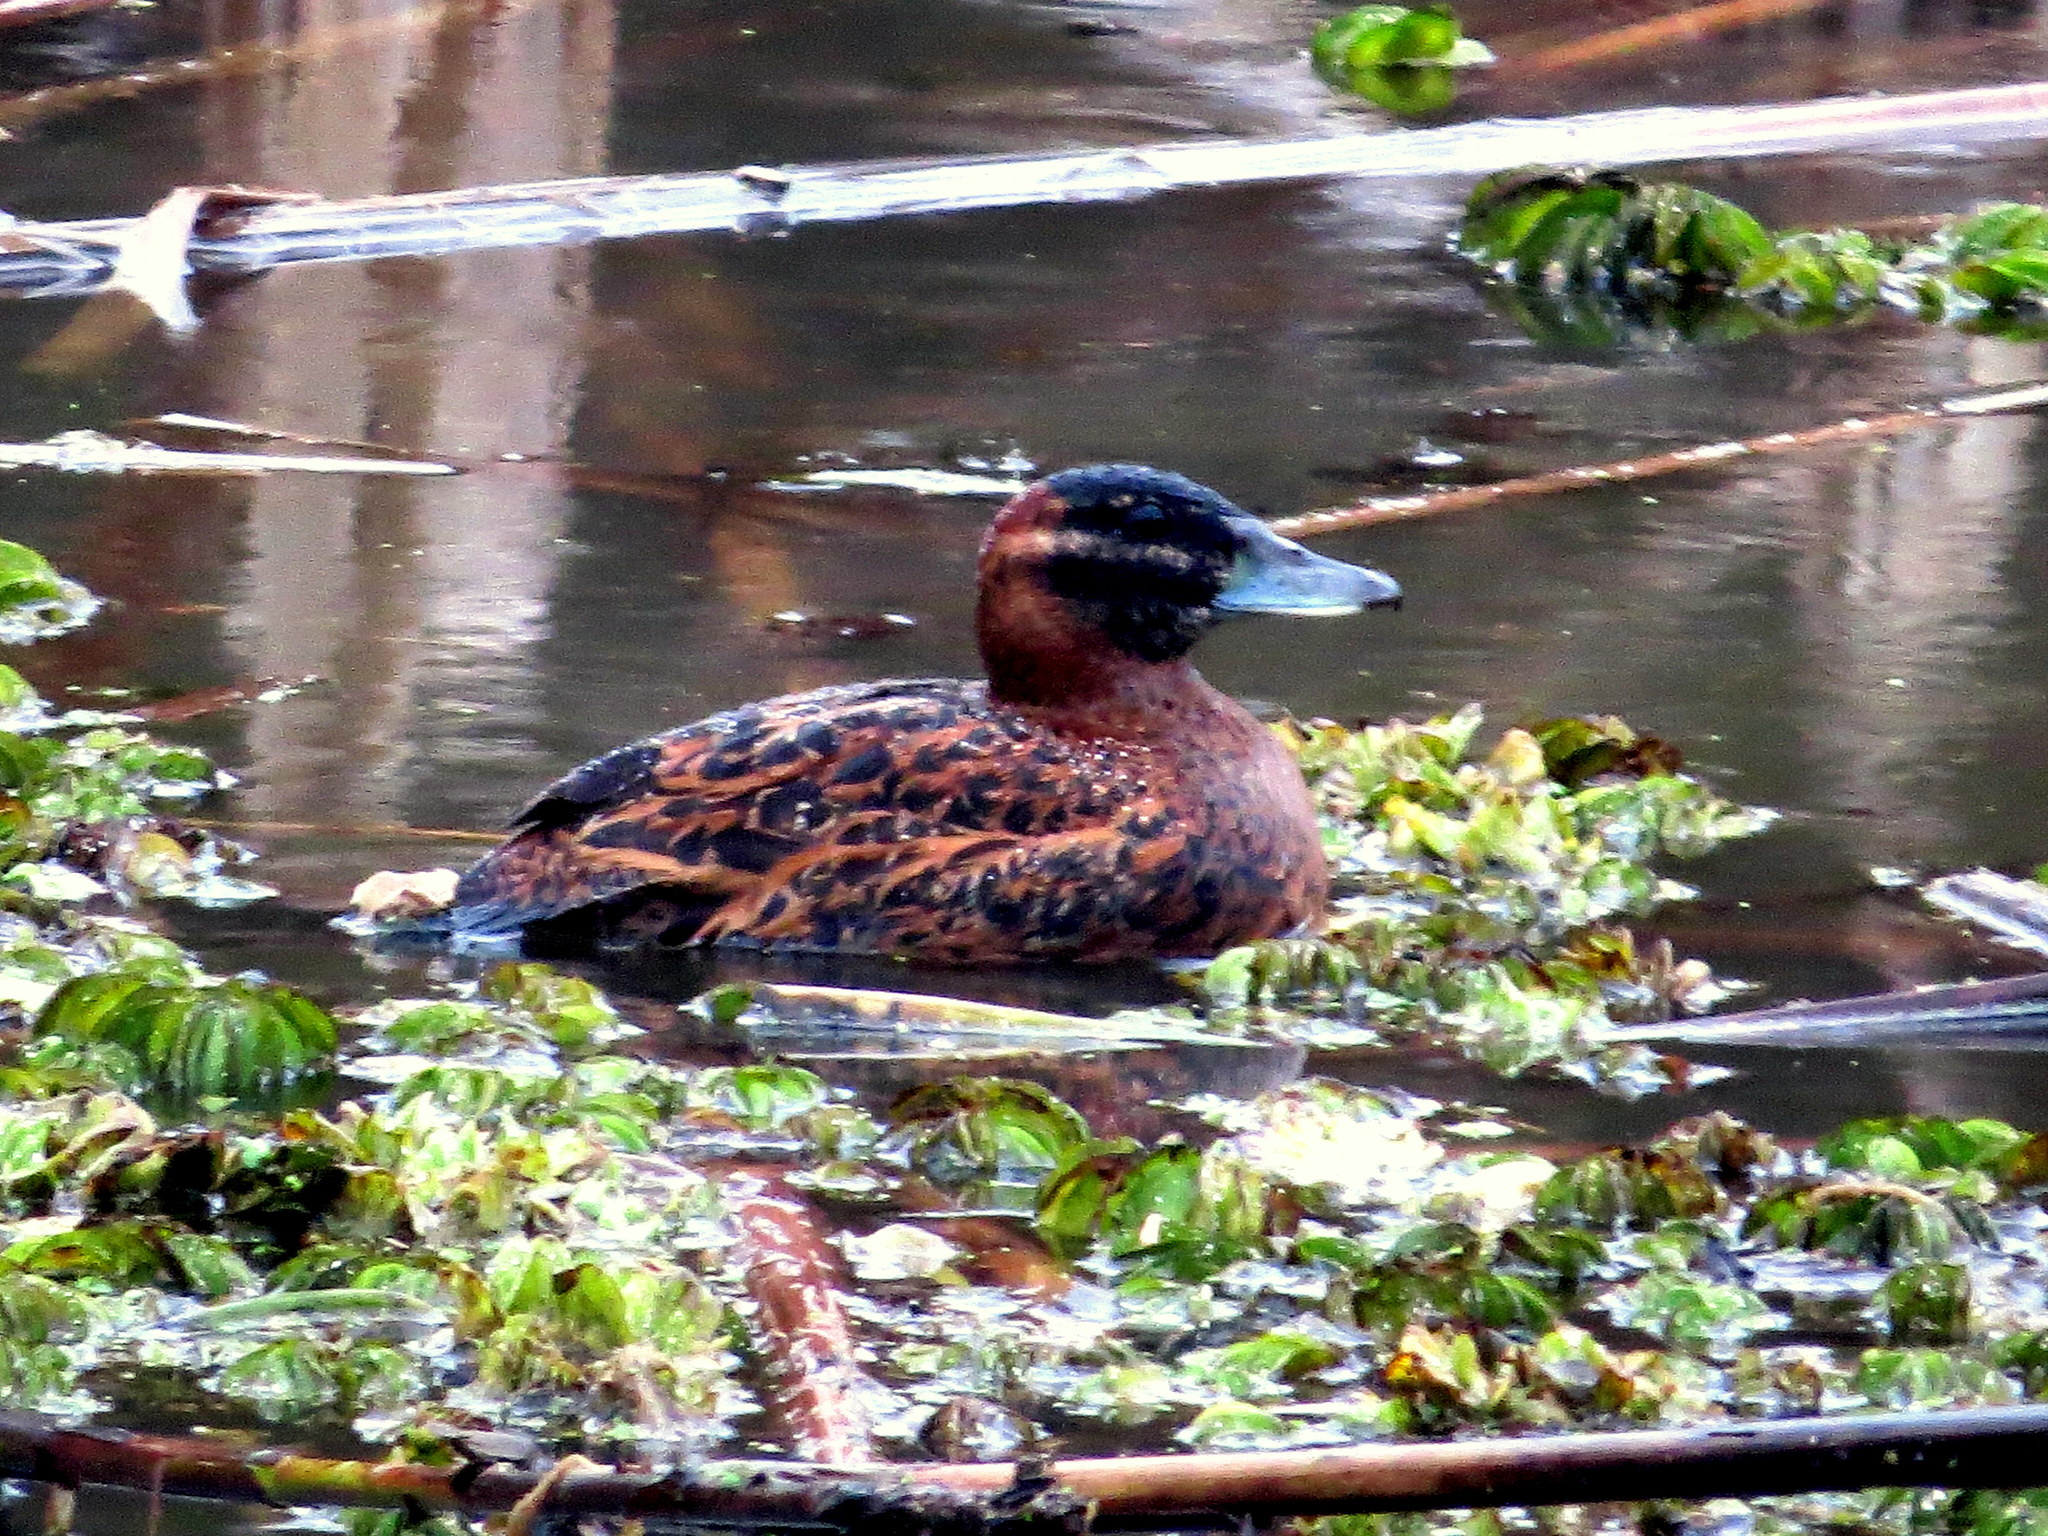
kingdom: Animalia
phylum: Chordata
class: Aves
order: Anseriformes
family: Anatidae
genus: Nomonyx
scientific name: Nomonyx dominicus
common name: Masked duck
